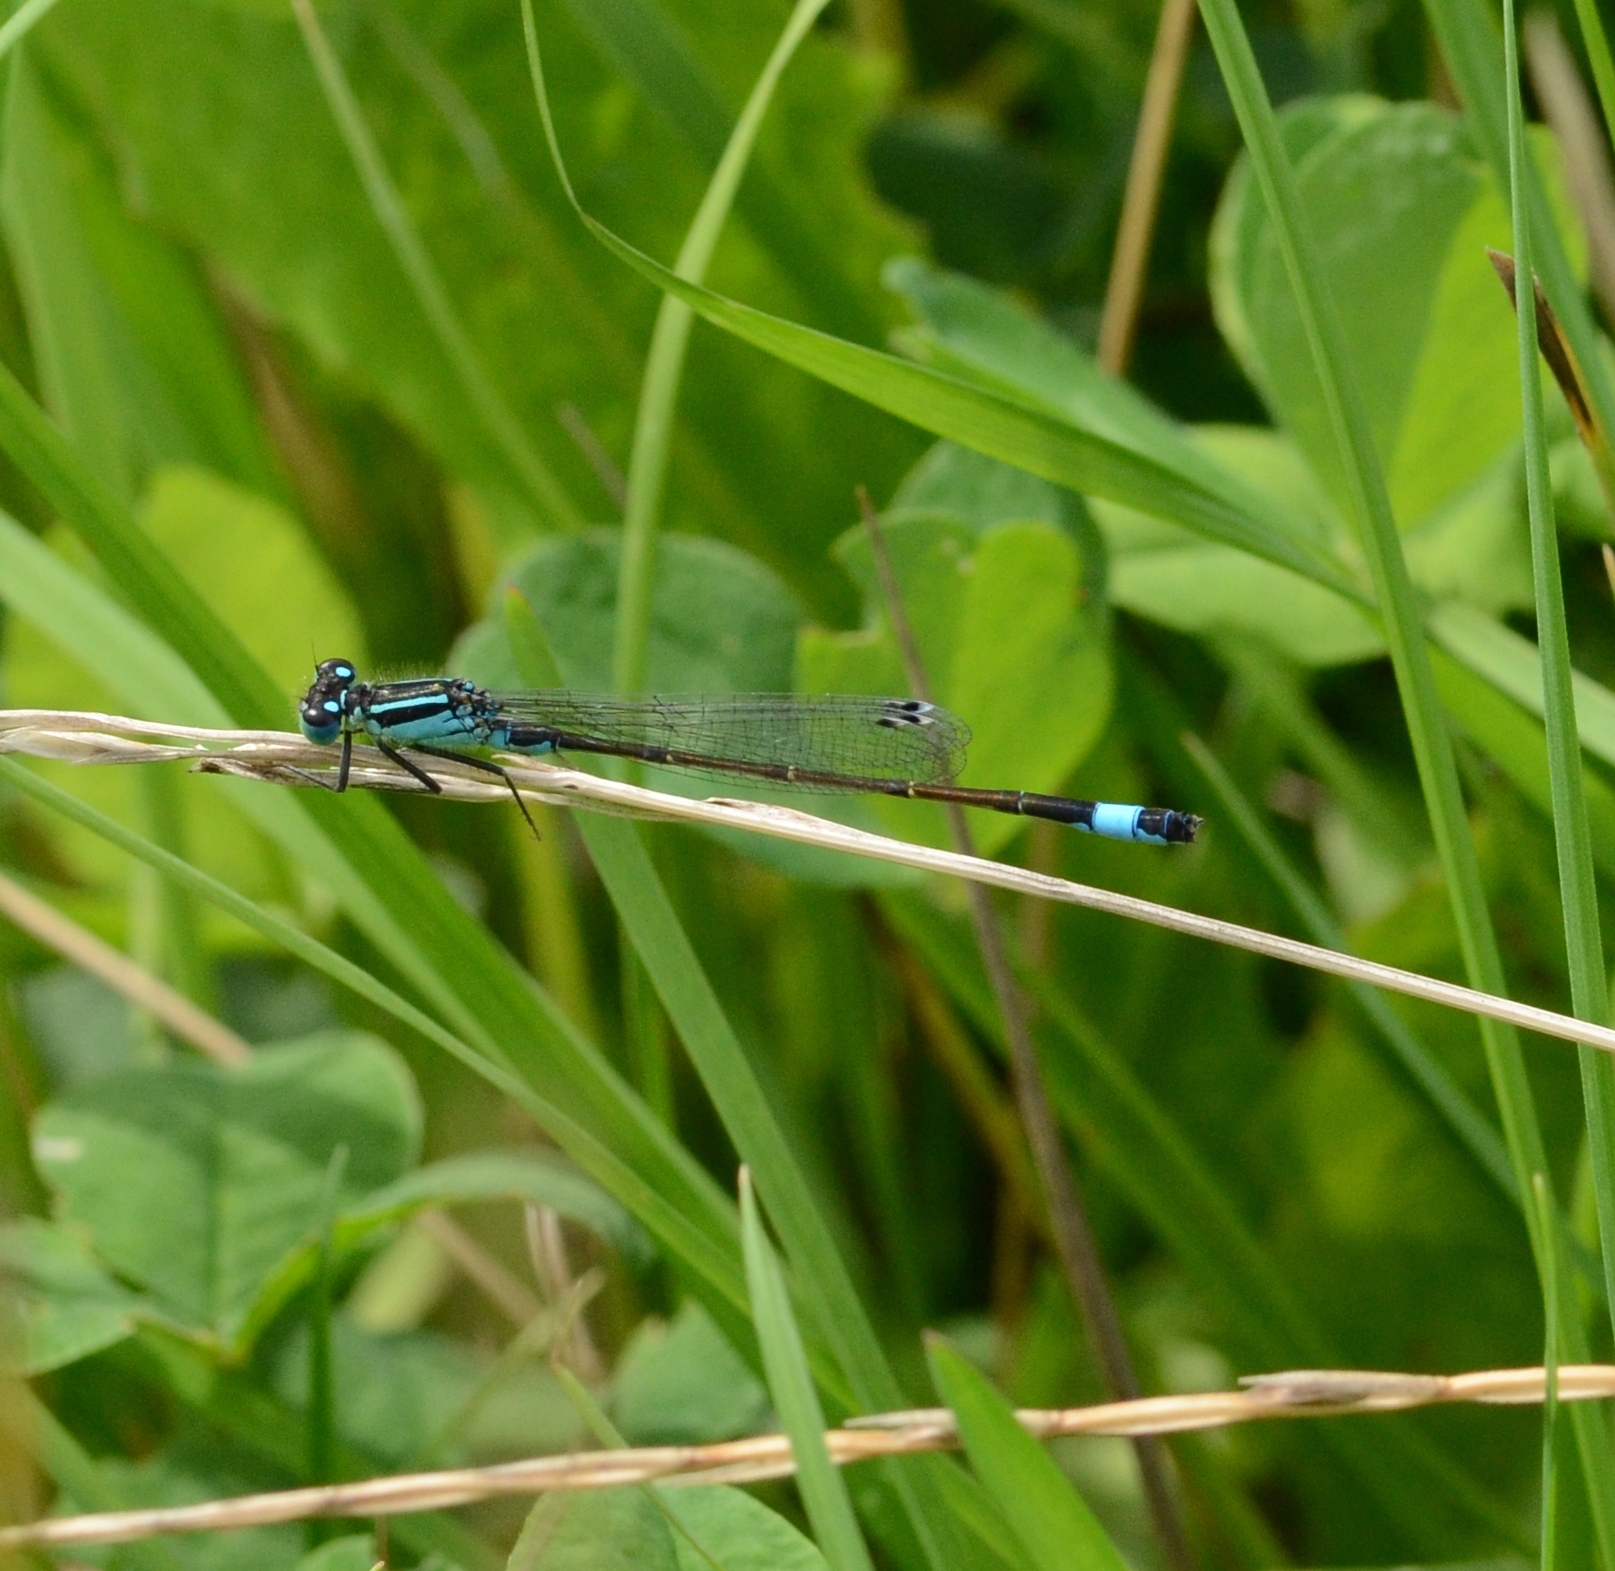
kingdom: Animalia
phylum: Arthropoda
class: Insecta
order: Odonata
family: Coenagrionidae
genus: Ischnura
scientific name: Ischnura elegans
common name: Blue-tailed damselfly
